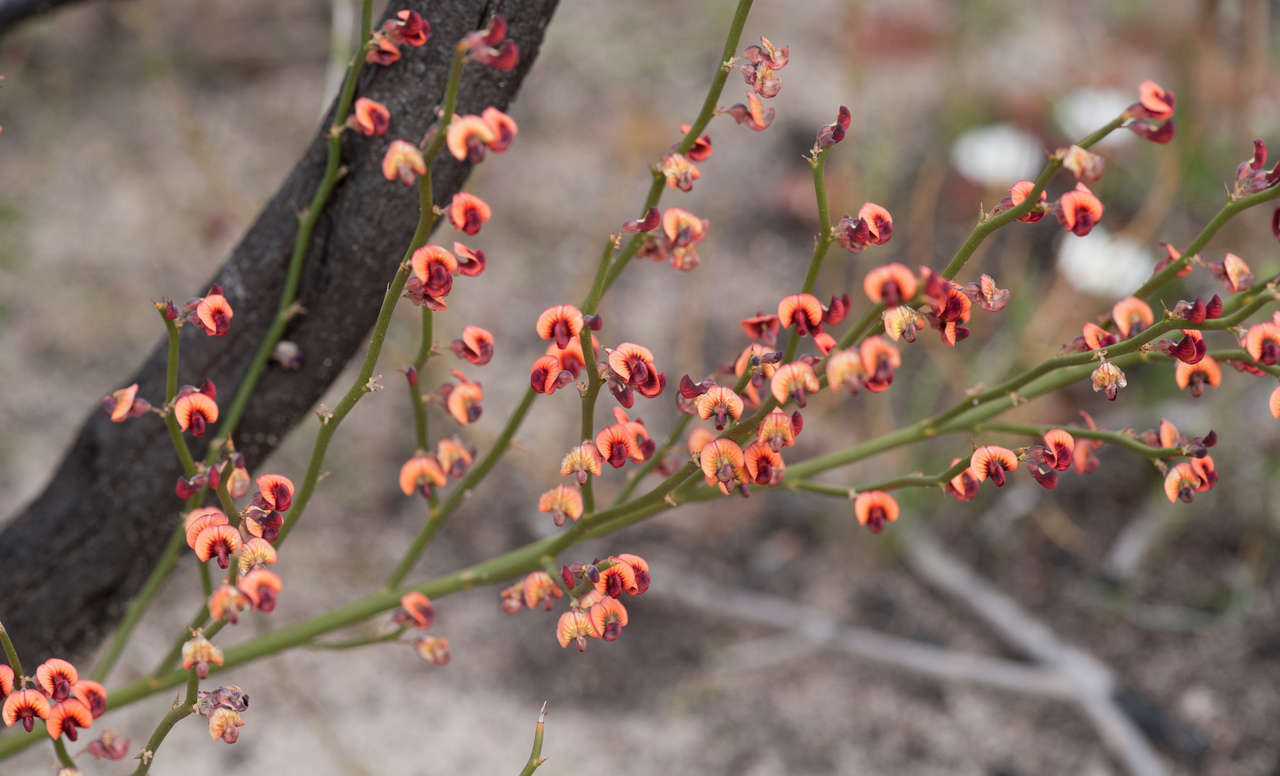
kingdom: Plantae
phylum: Tracheophyta
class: Magnoliopsida
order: Fabales
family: Fabaceae
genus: Daviesia
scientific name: Daviesia brevifolia
